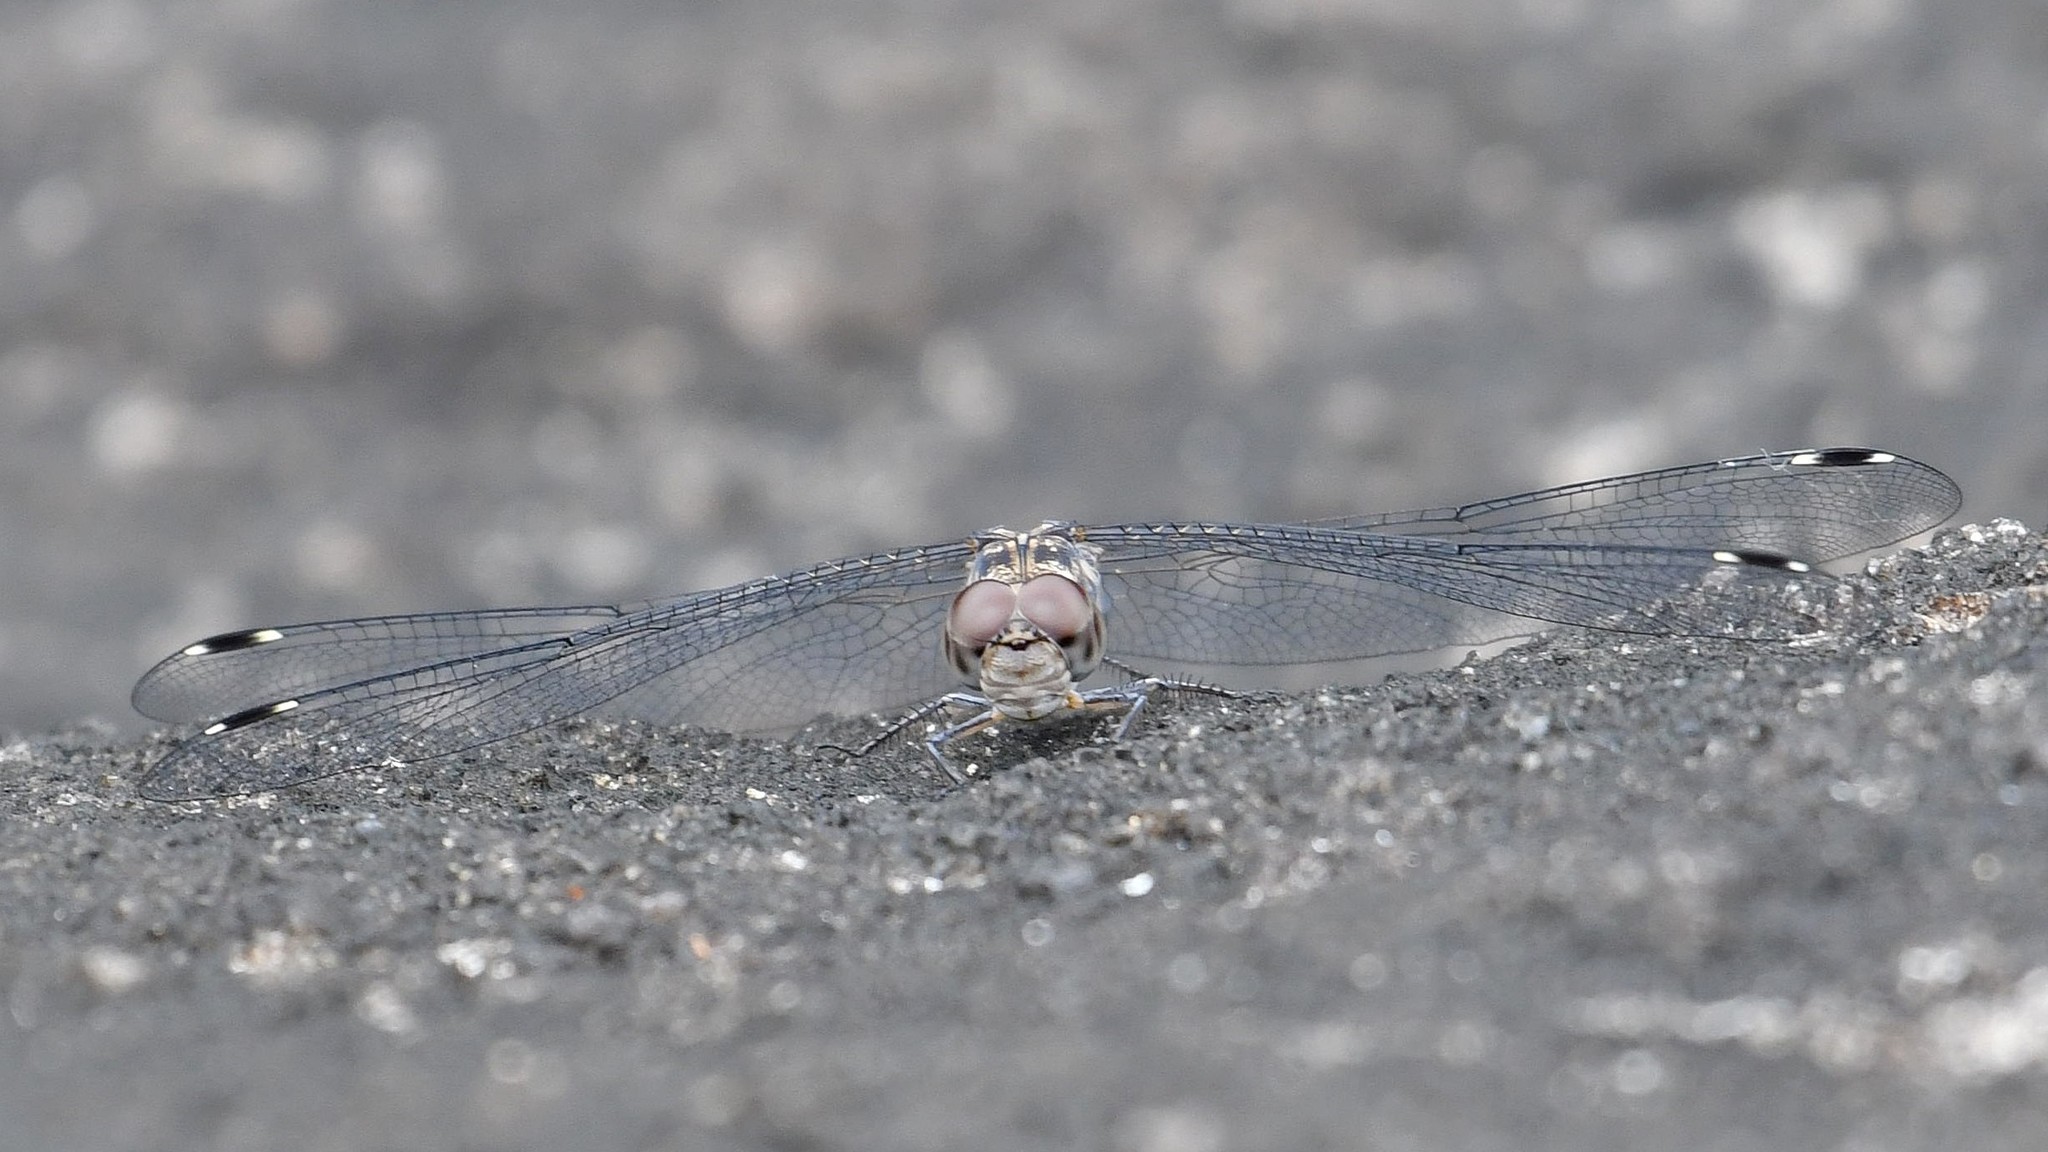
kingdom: Animalia
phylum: Arthropoda
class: Insecta
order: Odonata
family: Libellulidae
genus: Bradinopyga
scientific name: Bradinopyga geminata
